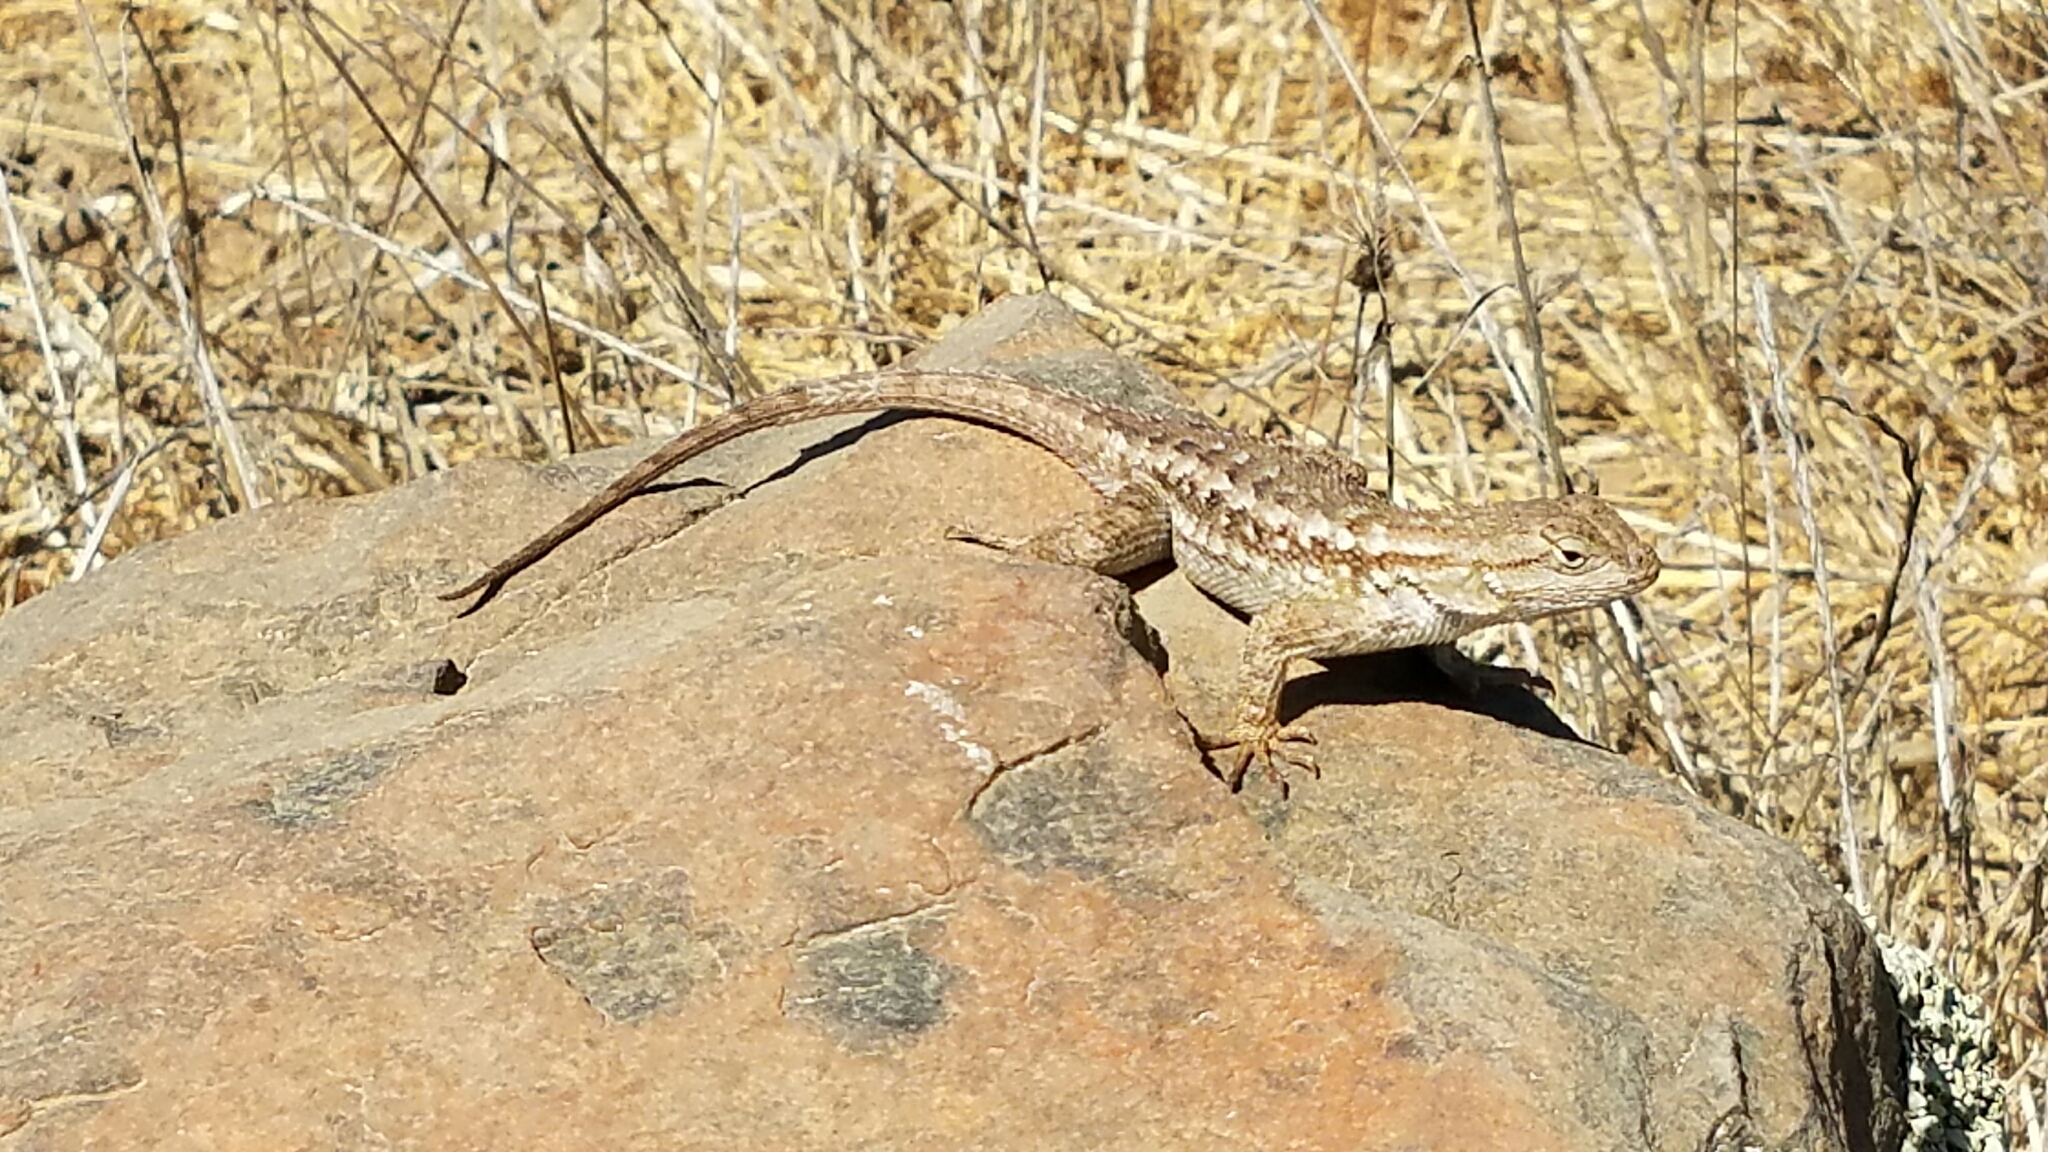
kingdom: Animalia
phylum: Chordata
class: Squamata
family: Phrynosomatidae
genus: Sceloporus
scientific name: Sceloporus occidentalis
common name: Western fence lizard
